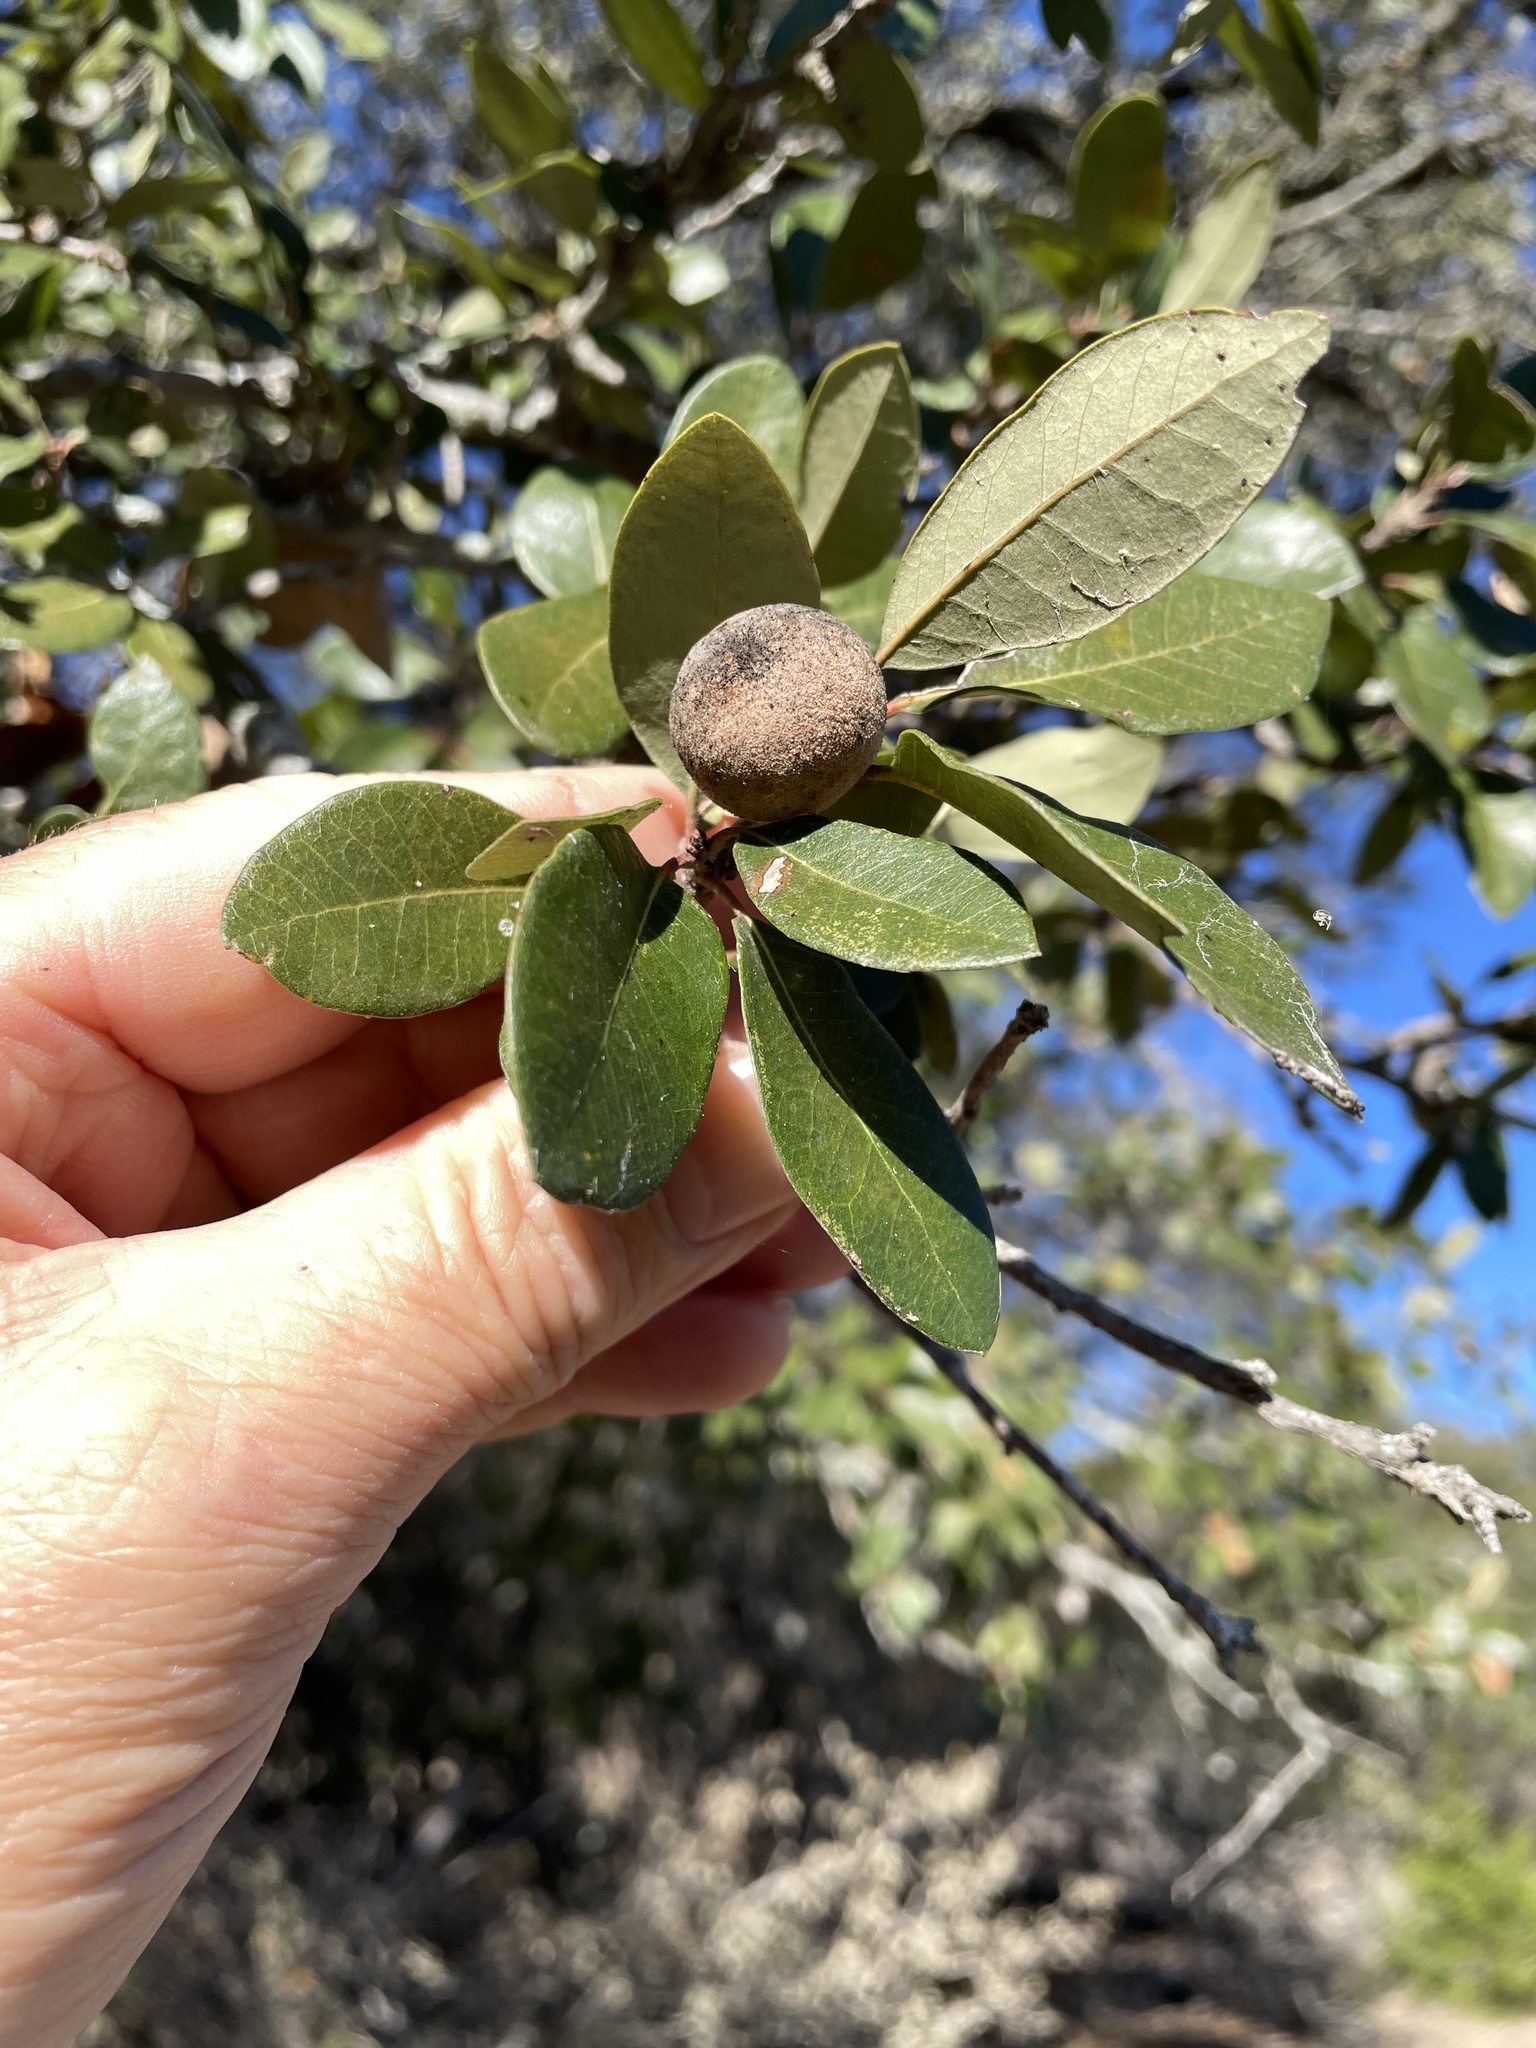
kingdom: Animalia
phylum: Arthropoda
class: Insecta
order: Hymenoptera
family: Cynipidae
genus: Disholcaspis
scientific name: Disholcaspis
